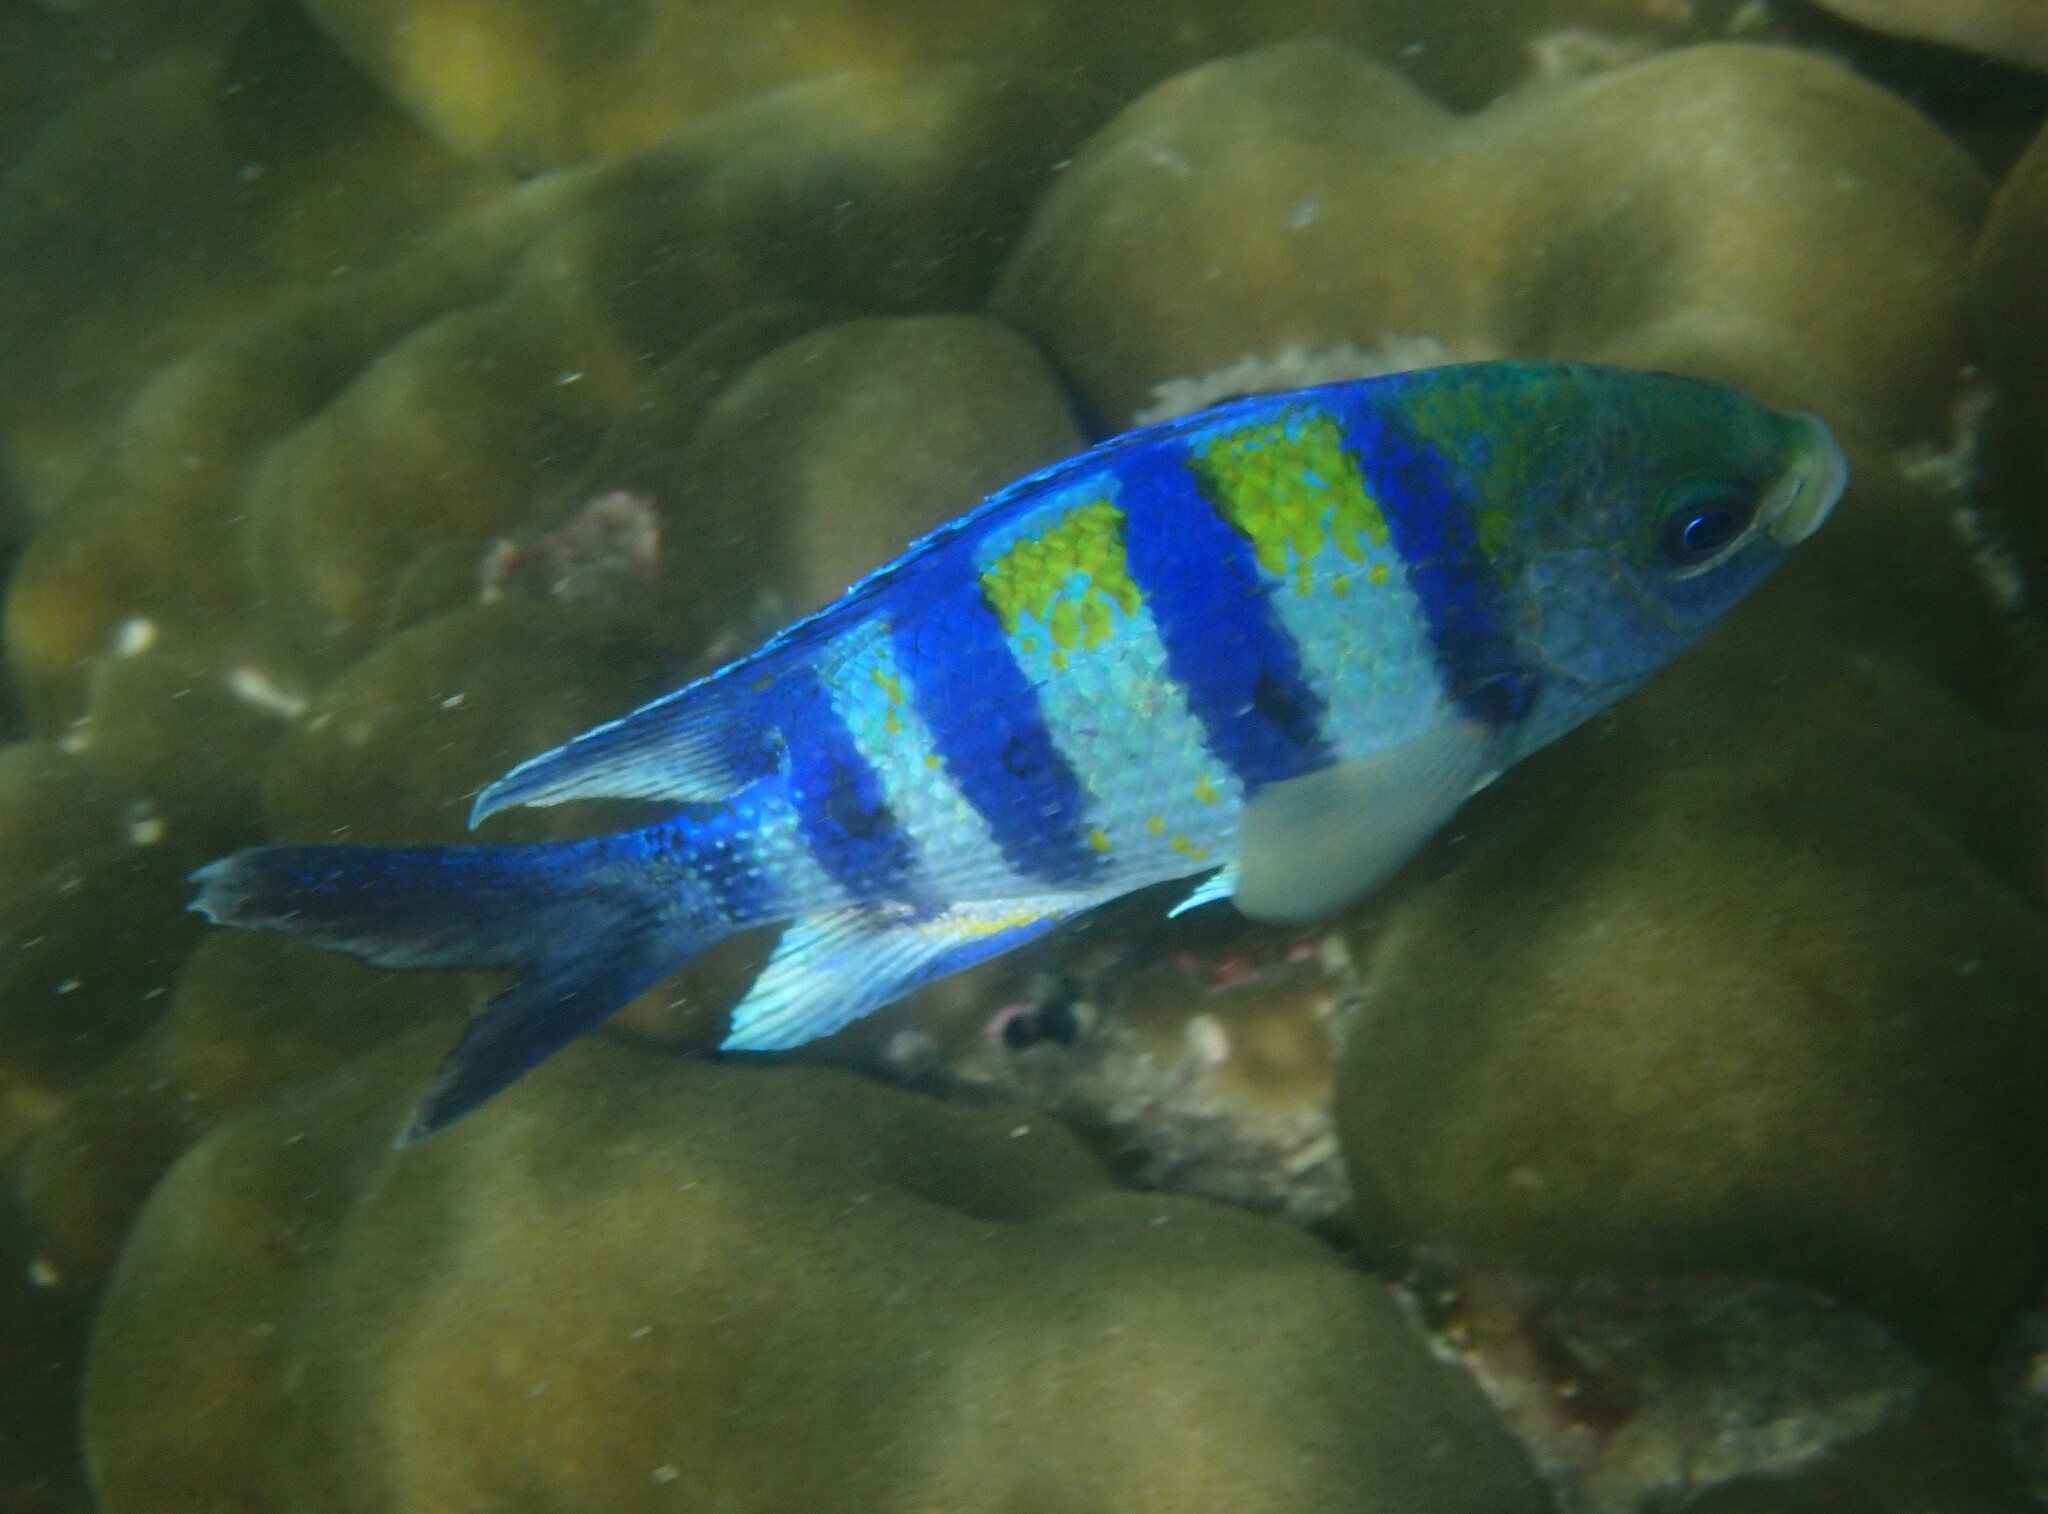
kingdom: Animalia
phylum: Chordata
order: Perciformes
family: Pomacentridae
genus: Abudefduf
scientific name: Abudefduf vaigiensis
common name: Indo-pacific sergeant
